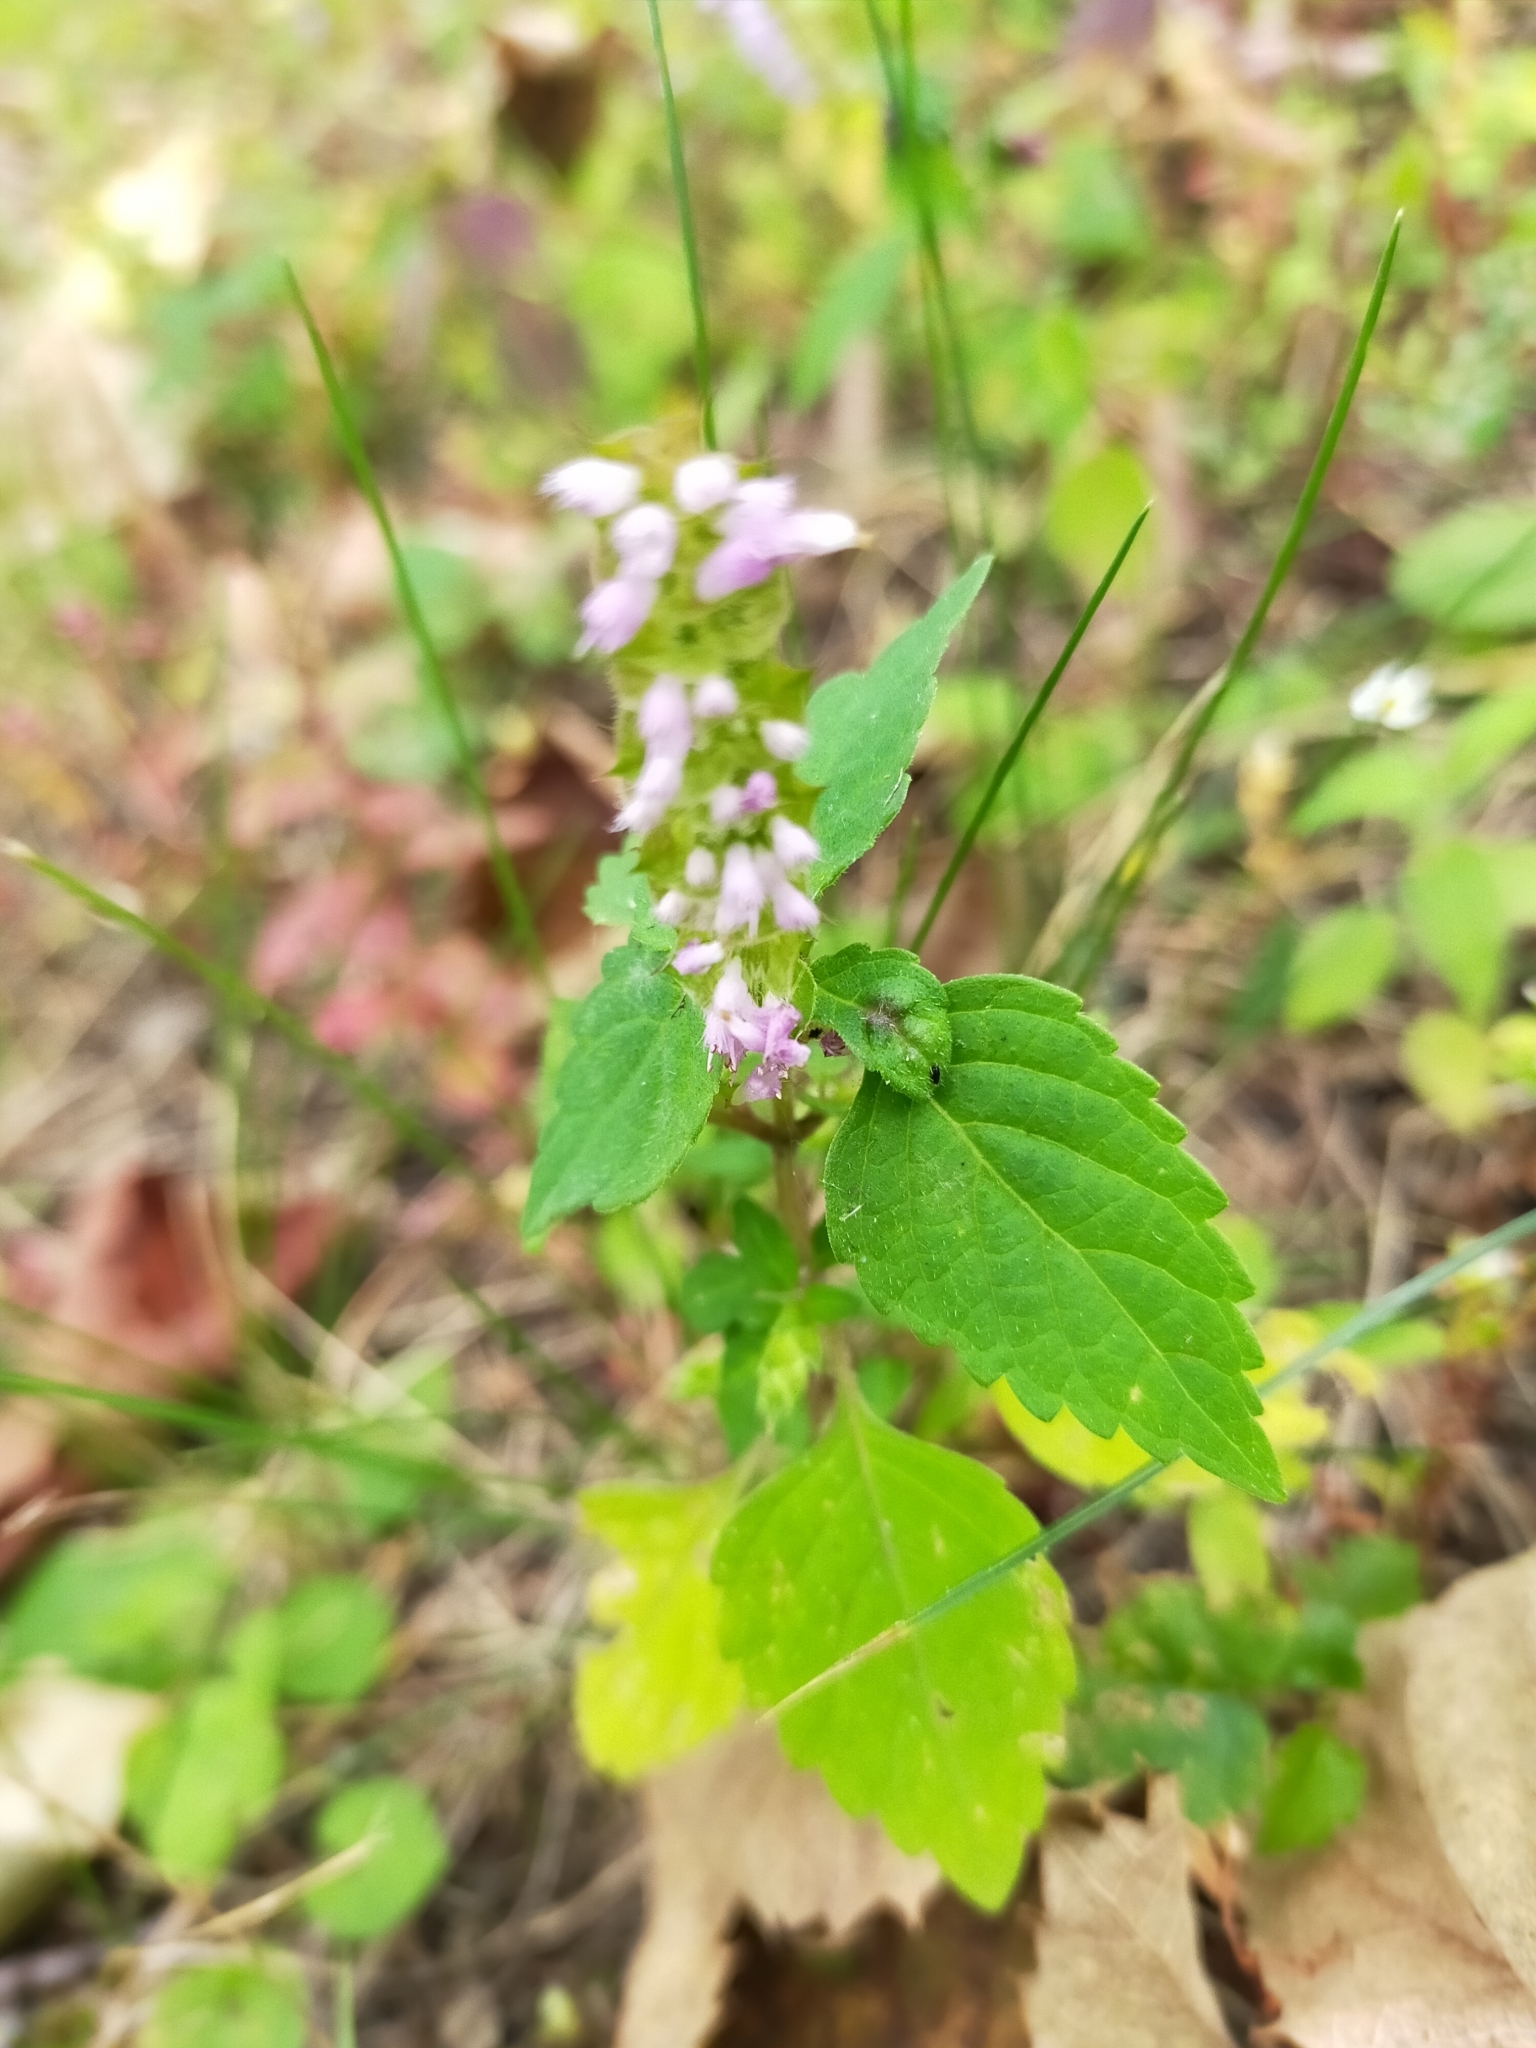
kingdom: Plantae
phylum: Tracheophyta
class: Magnoliopsida
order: Lamiales
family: Lamiaceae
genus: Elsholtzia
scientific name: Elsholtzia ciliata
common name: Ciliate elsholtzia
